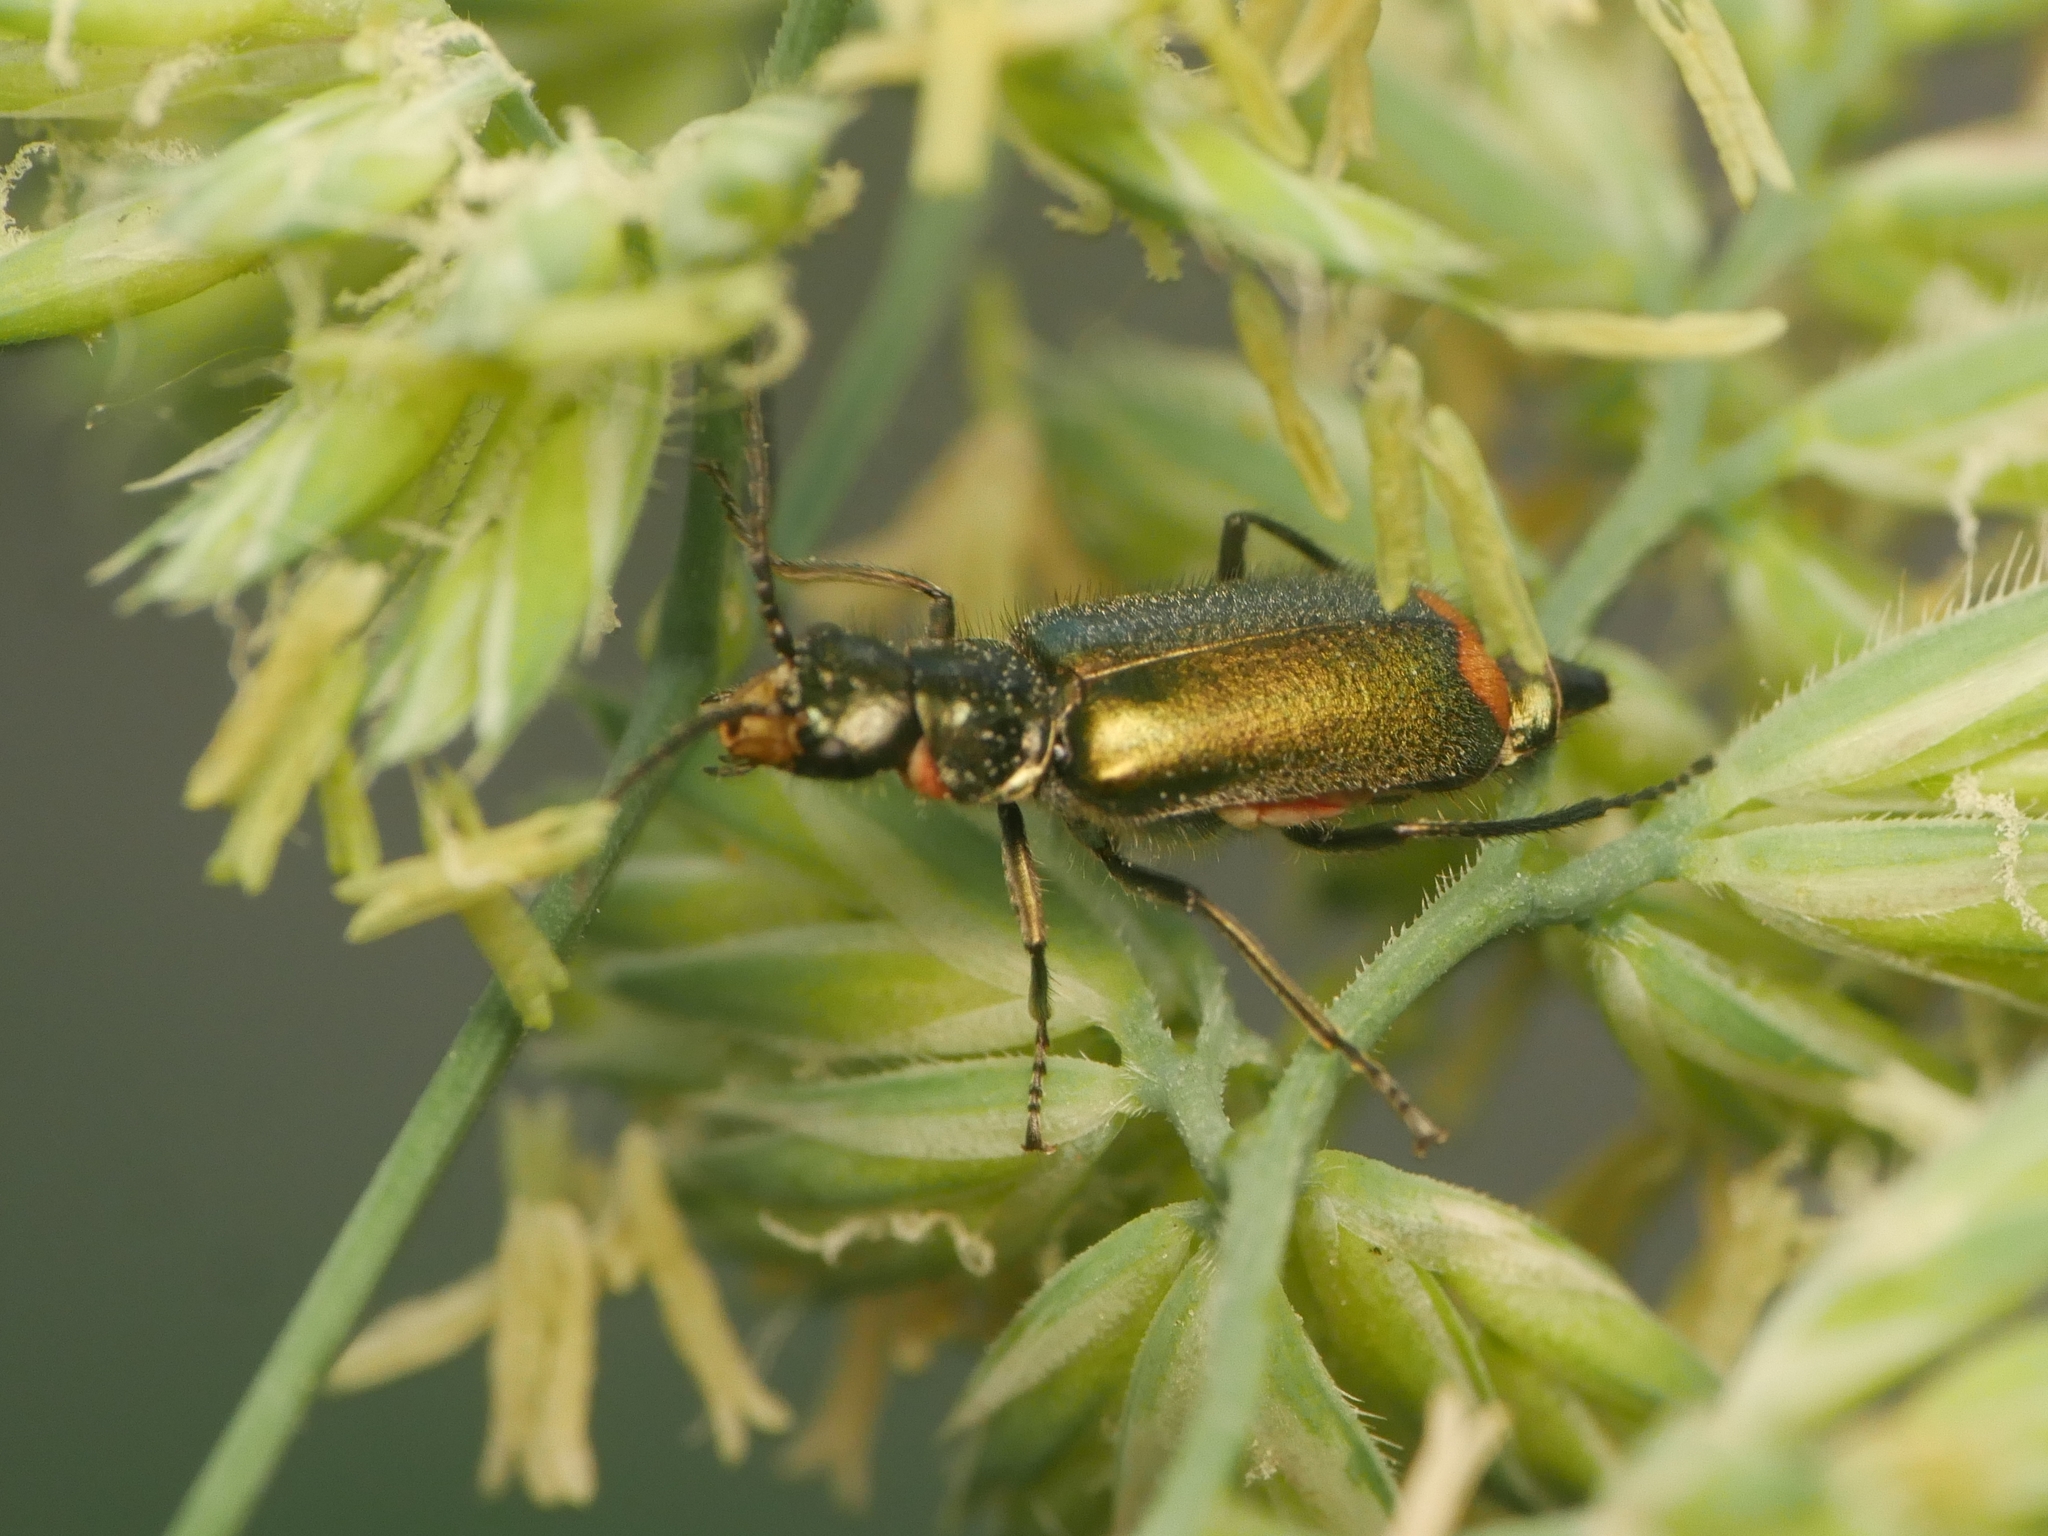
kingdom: Animalia
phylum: Arthropoda
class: Insecta
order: Coleoptera
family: Melyridae
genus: Malachius
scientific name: Malachius bipustulatus
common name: Malachite beetle
